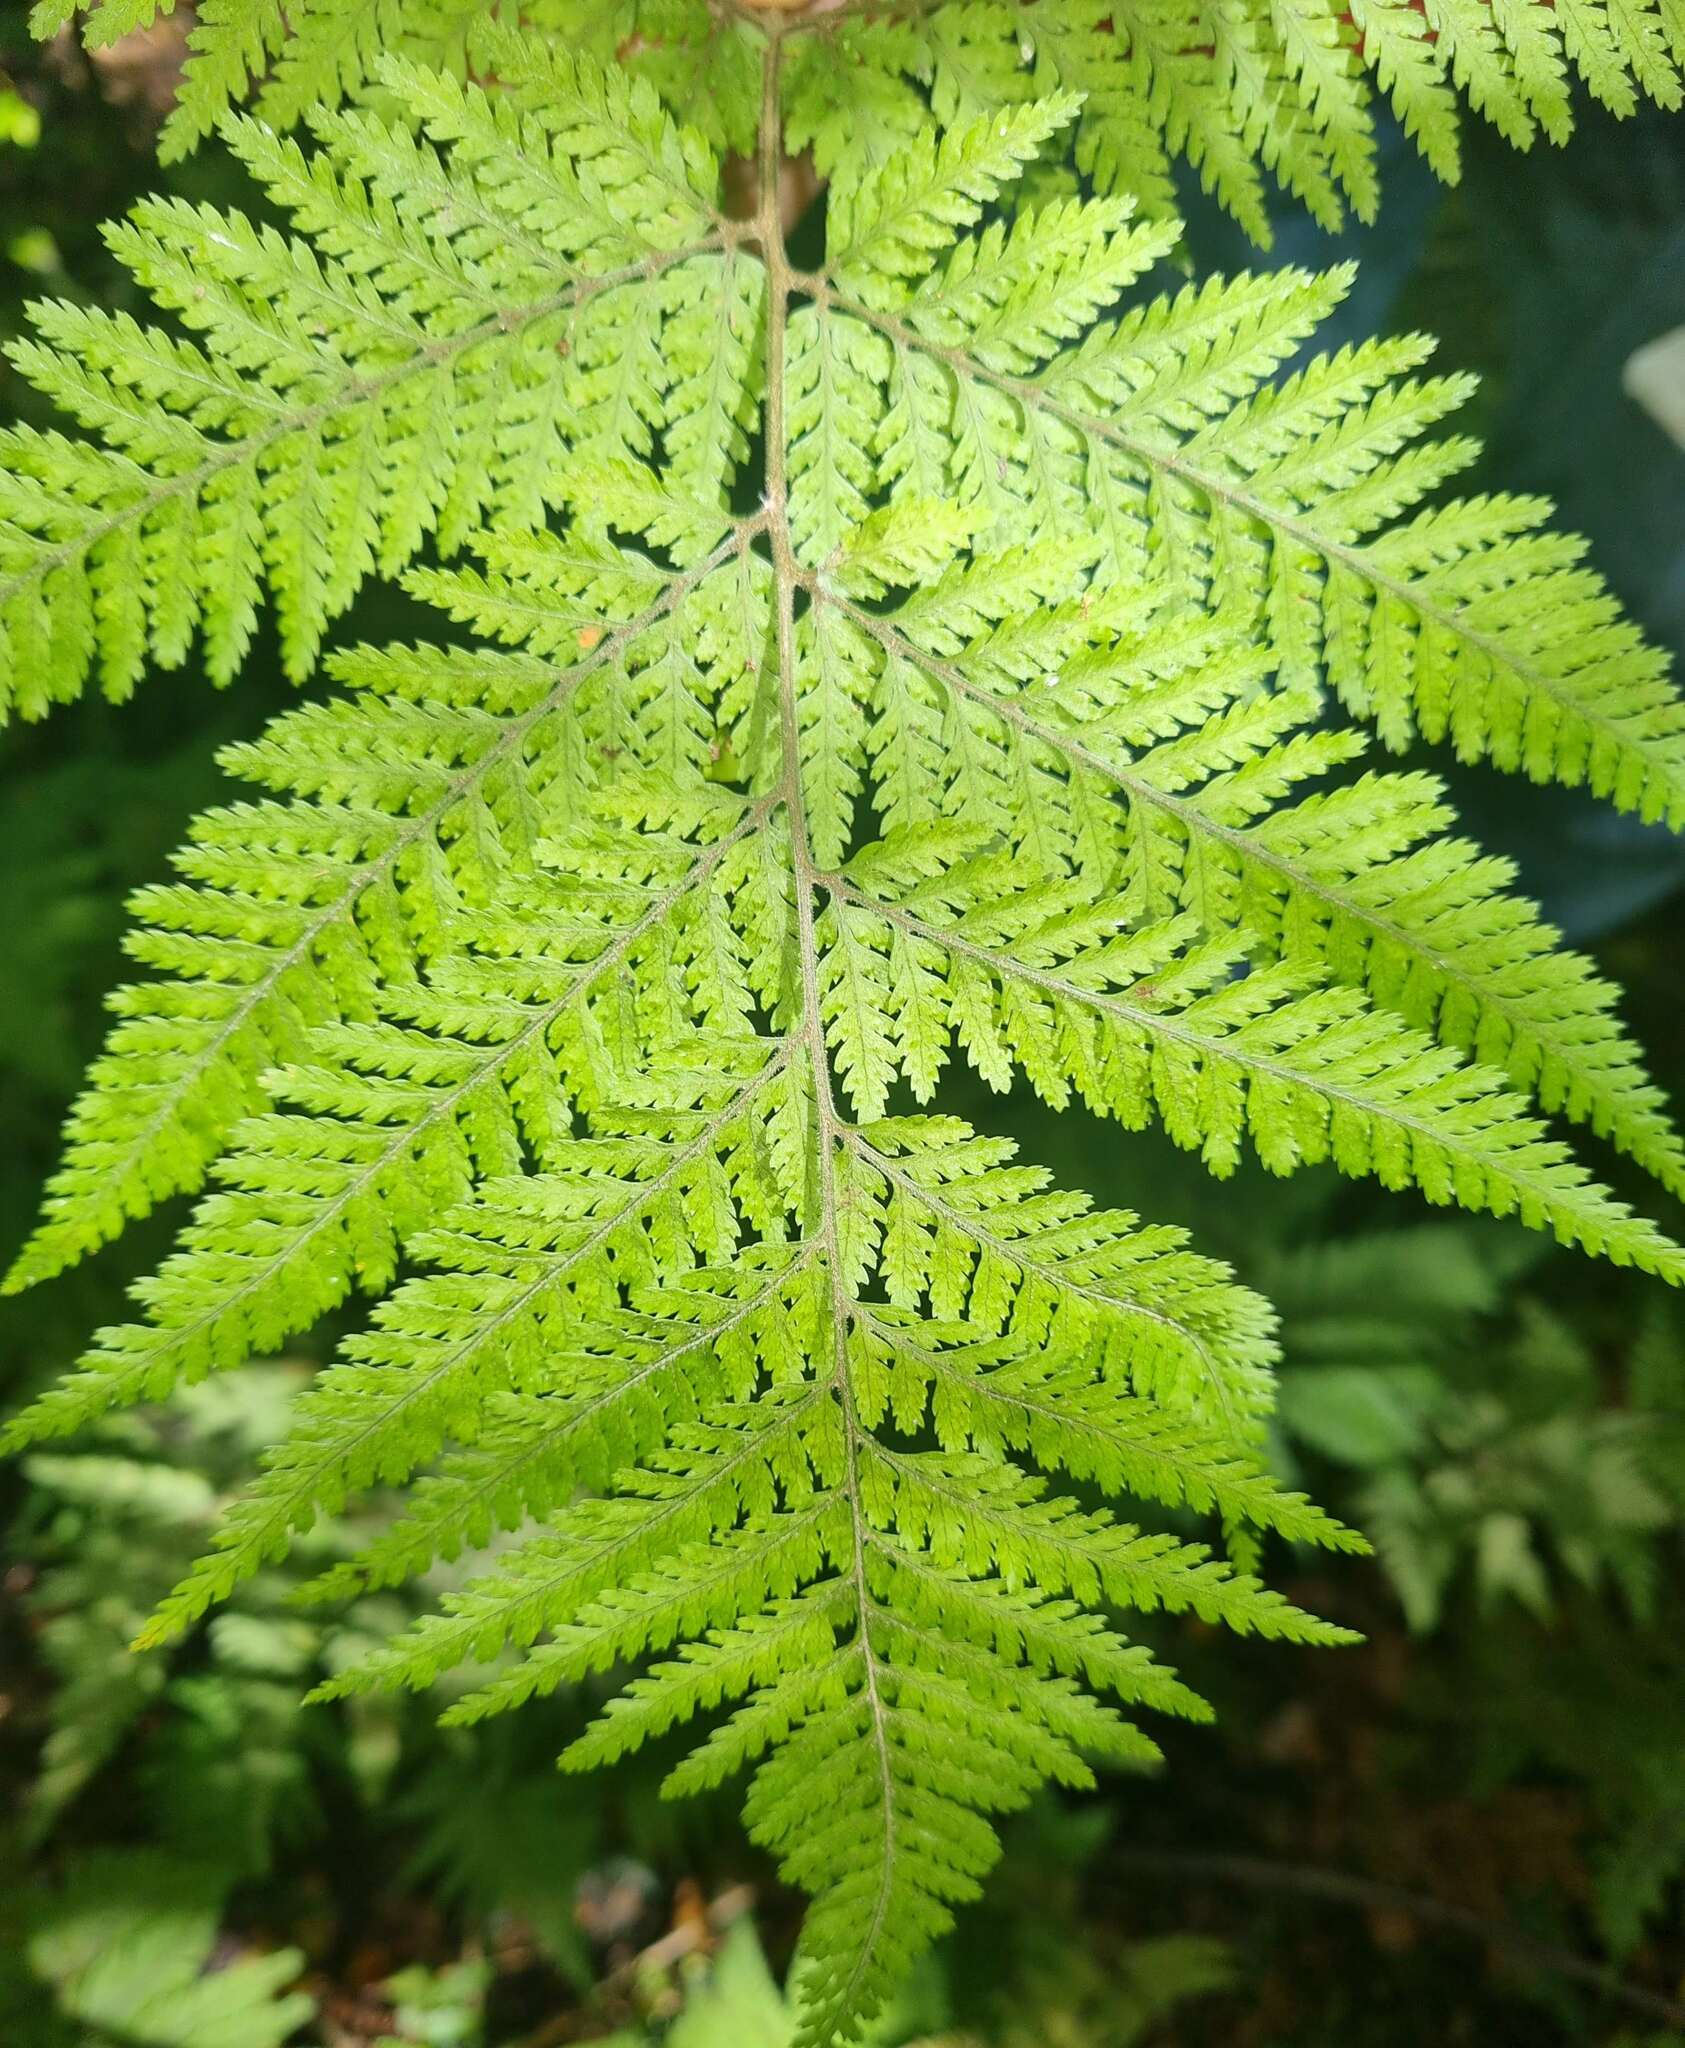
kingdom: Plantae
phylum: Tracheophyta
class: Polypodiopsida
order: Polypodiales
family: Dryopteridaceae
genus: Parapolystichum
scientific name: Parapolystichum microsorum
